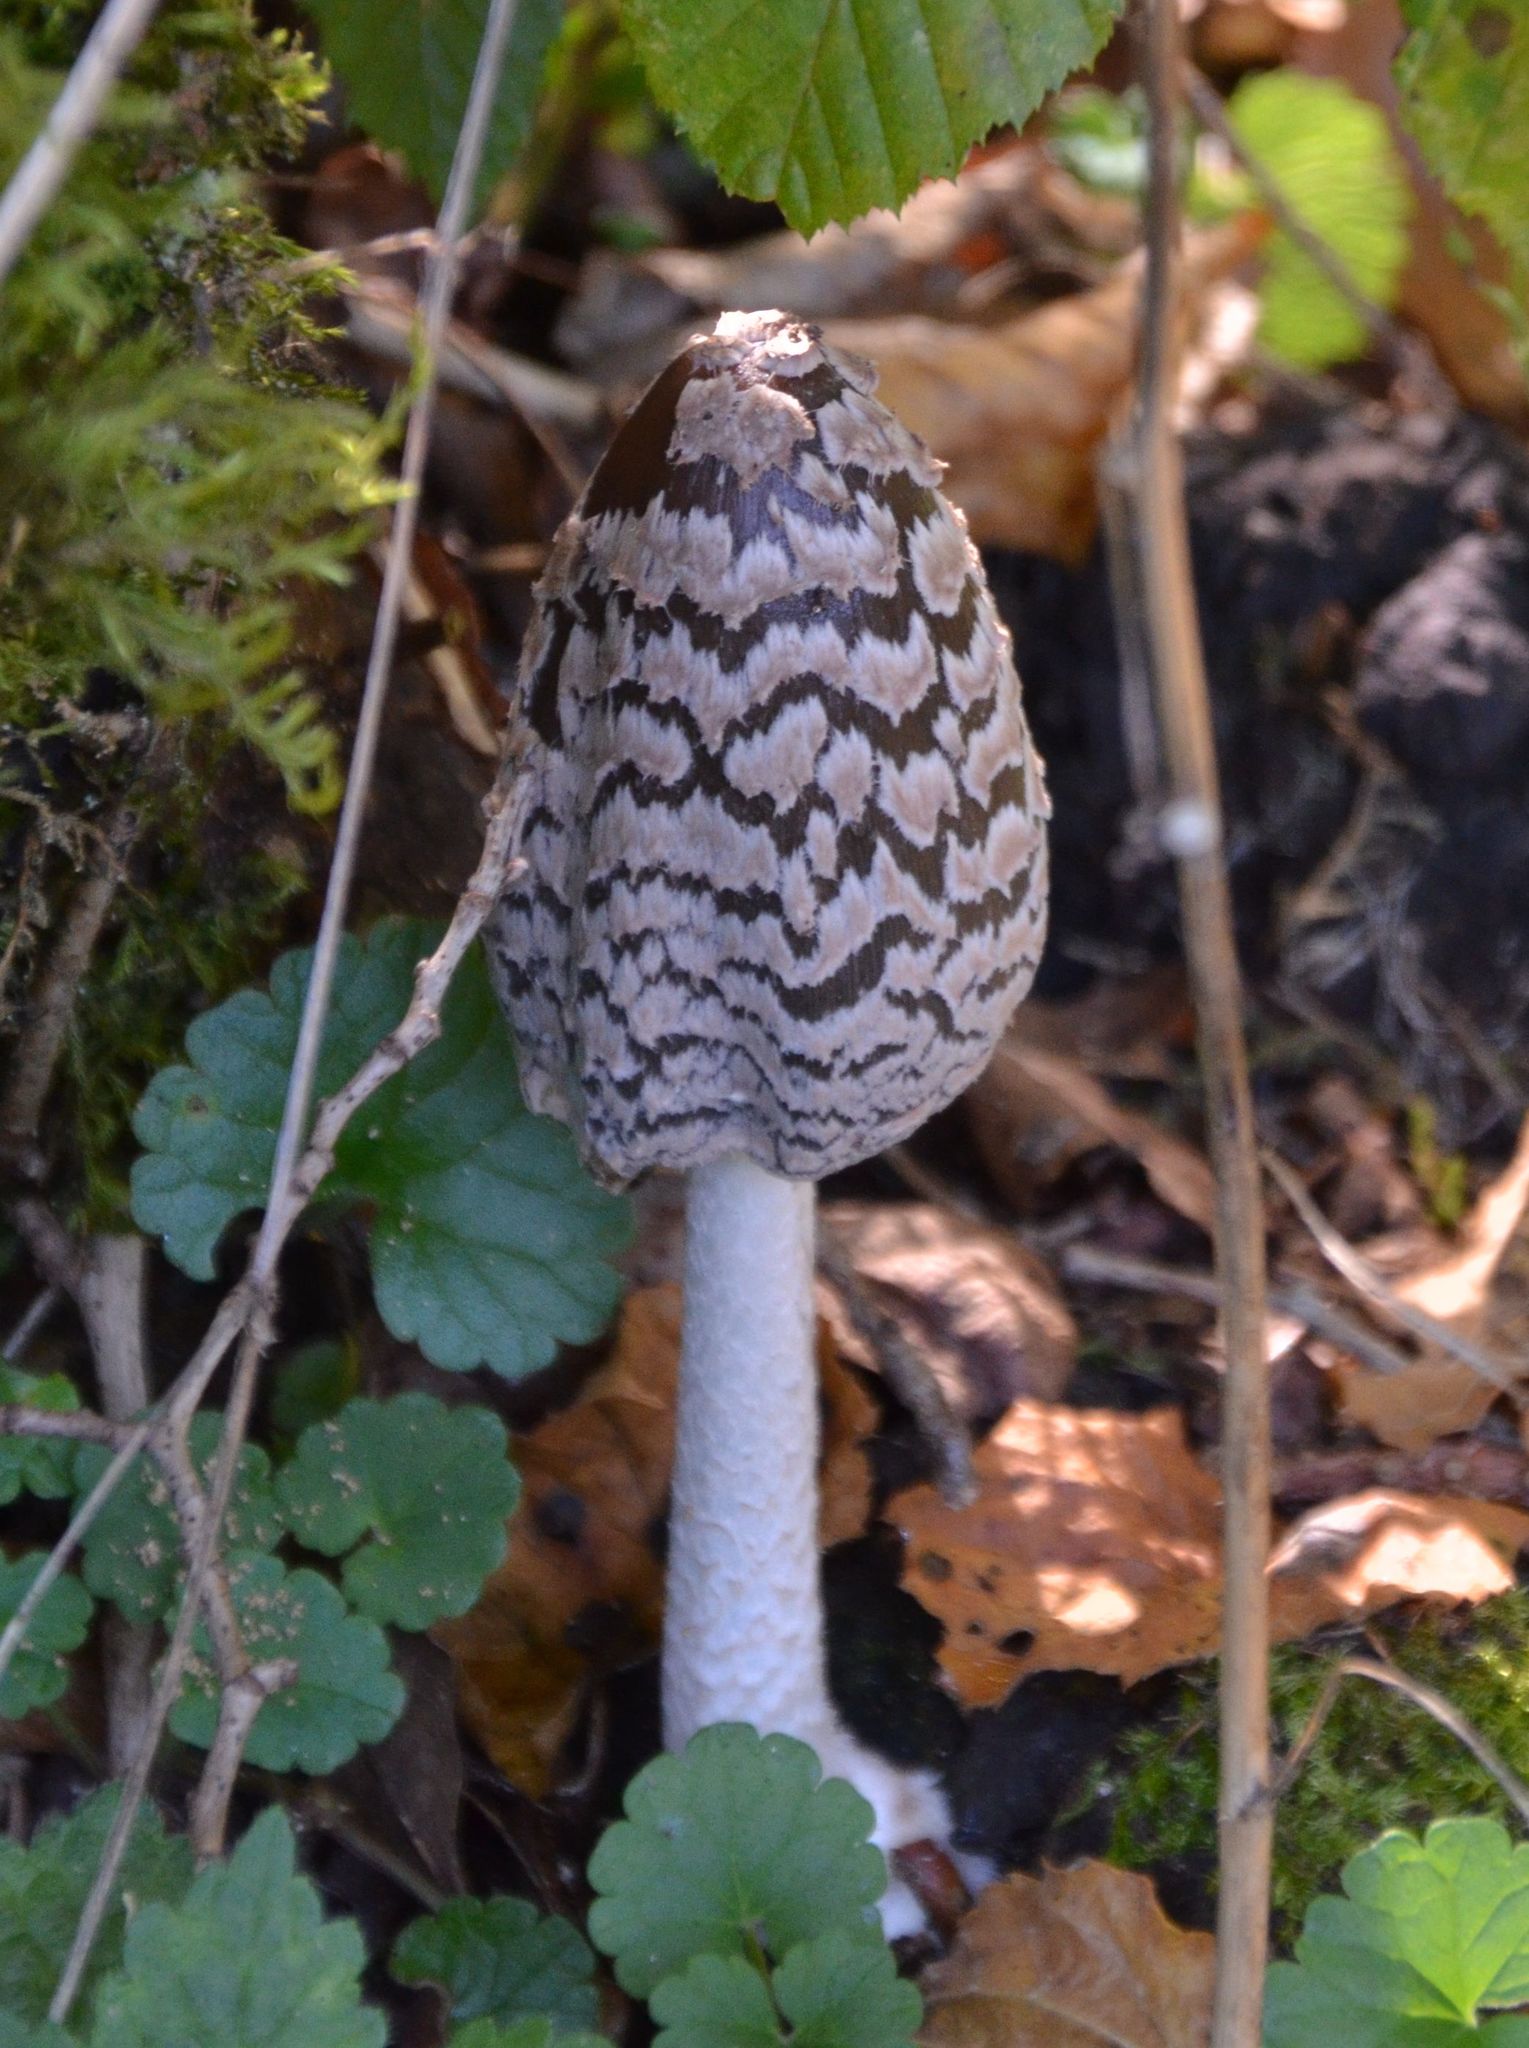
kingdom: Fungi
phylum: Basidiomycota
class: Agaricomycetes
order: Agaricales
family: Psathyrellaceae
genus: Coprinopsis
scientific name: Coprinopsis picacea
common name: Magpie inkcap
